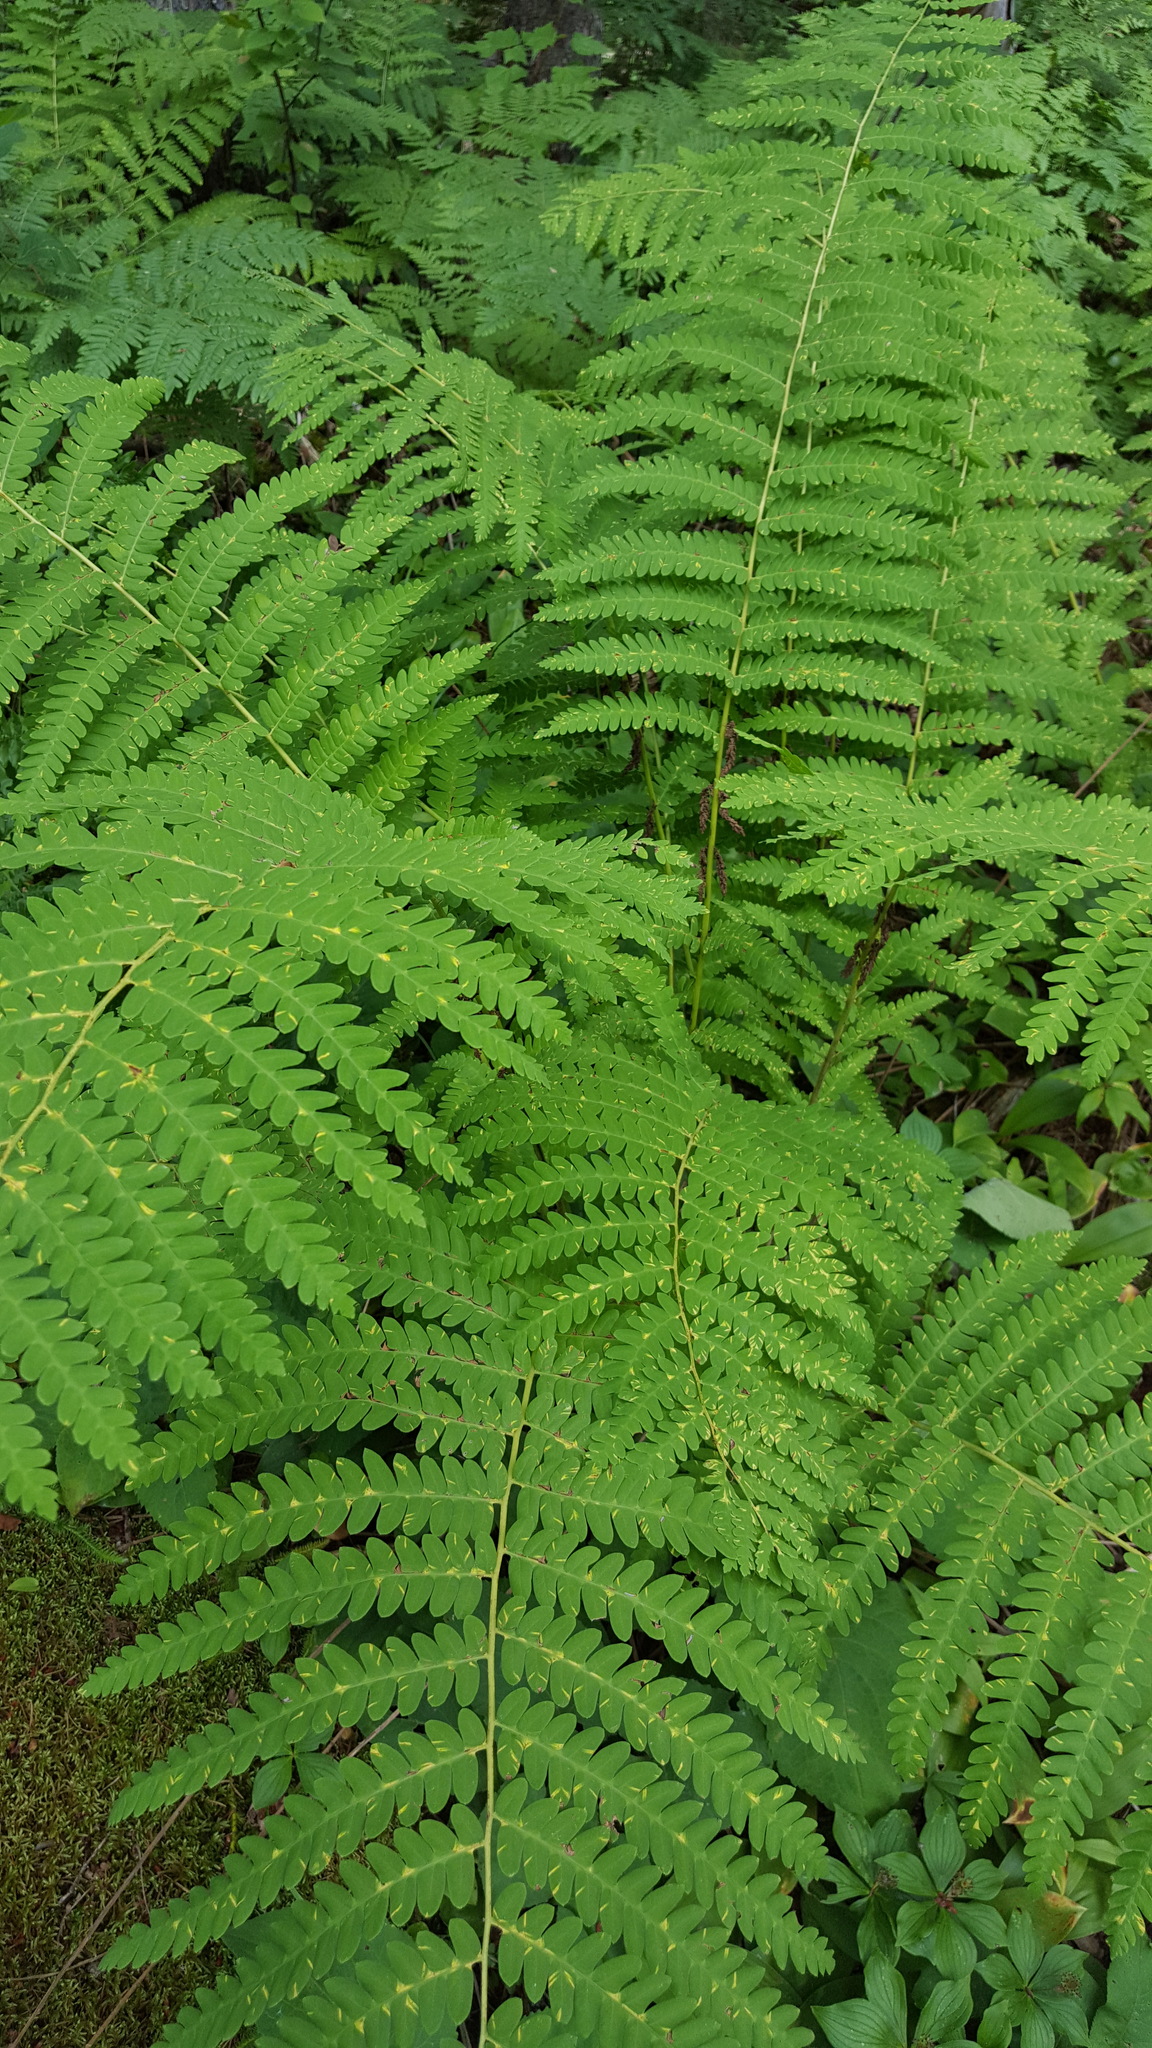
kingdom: Plantae
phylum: Tracheophyta
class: Polypodiopsida
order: Osmundales
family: Osmundaceae
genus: Claytosmunda
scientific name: Claytosmunda claytoniana
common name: Clayton's fern
